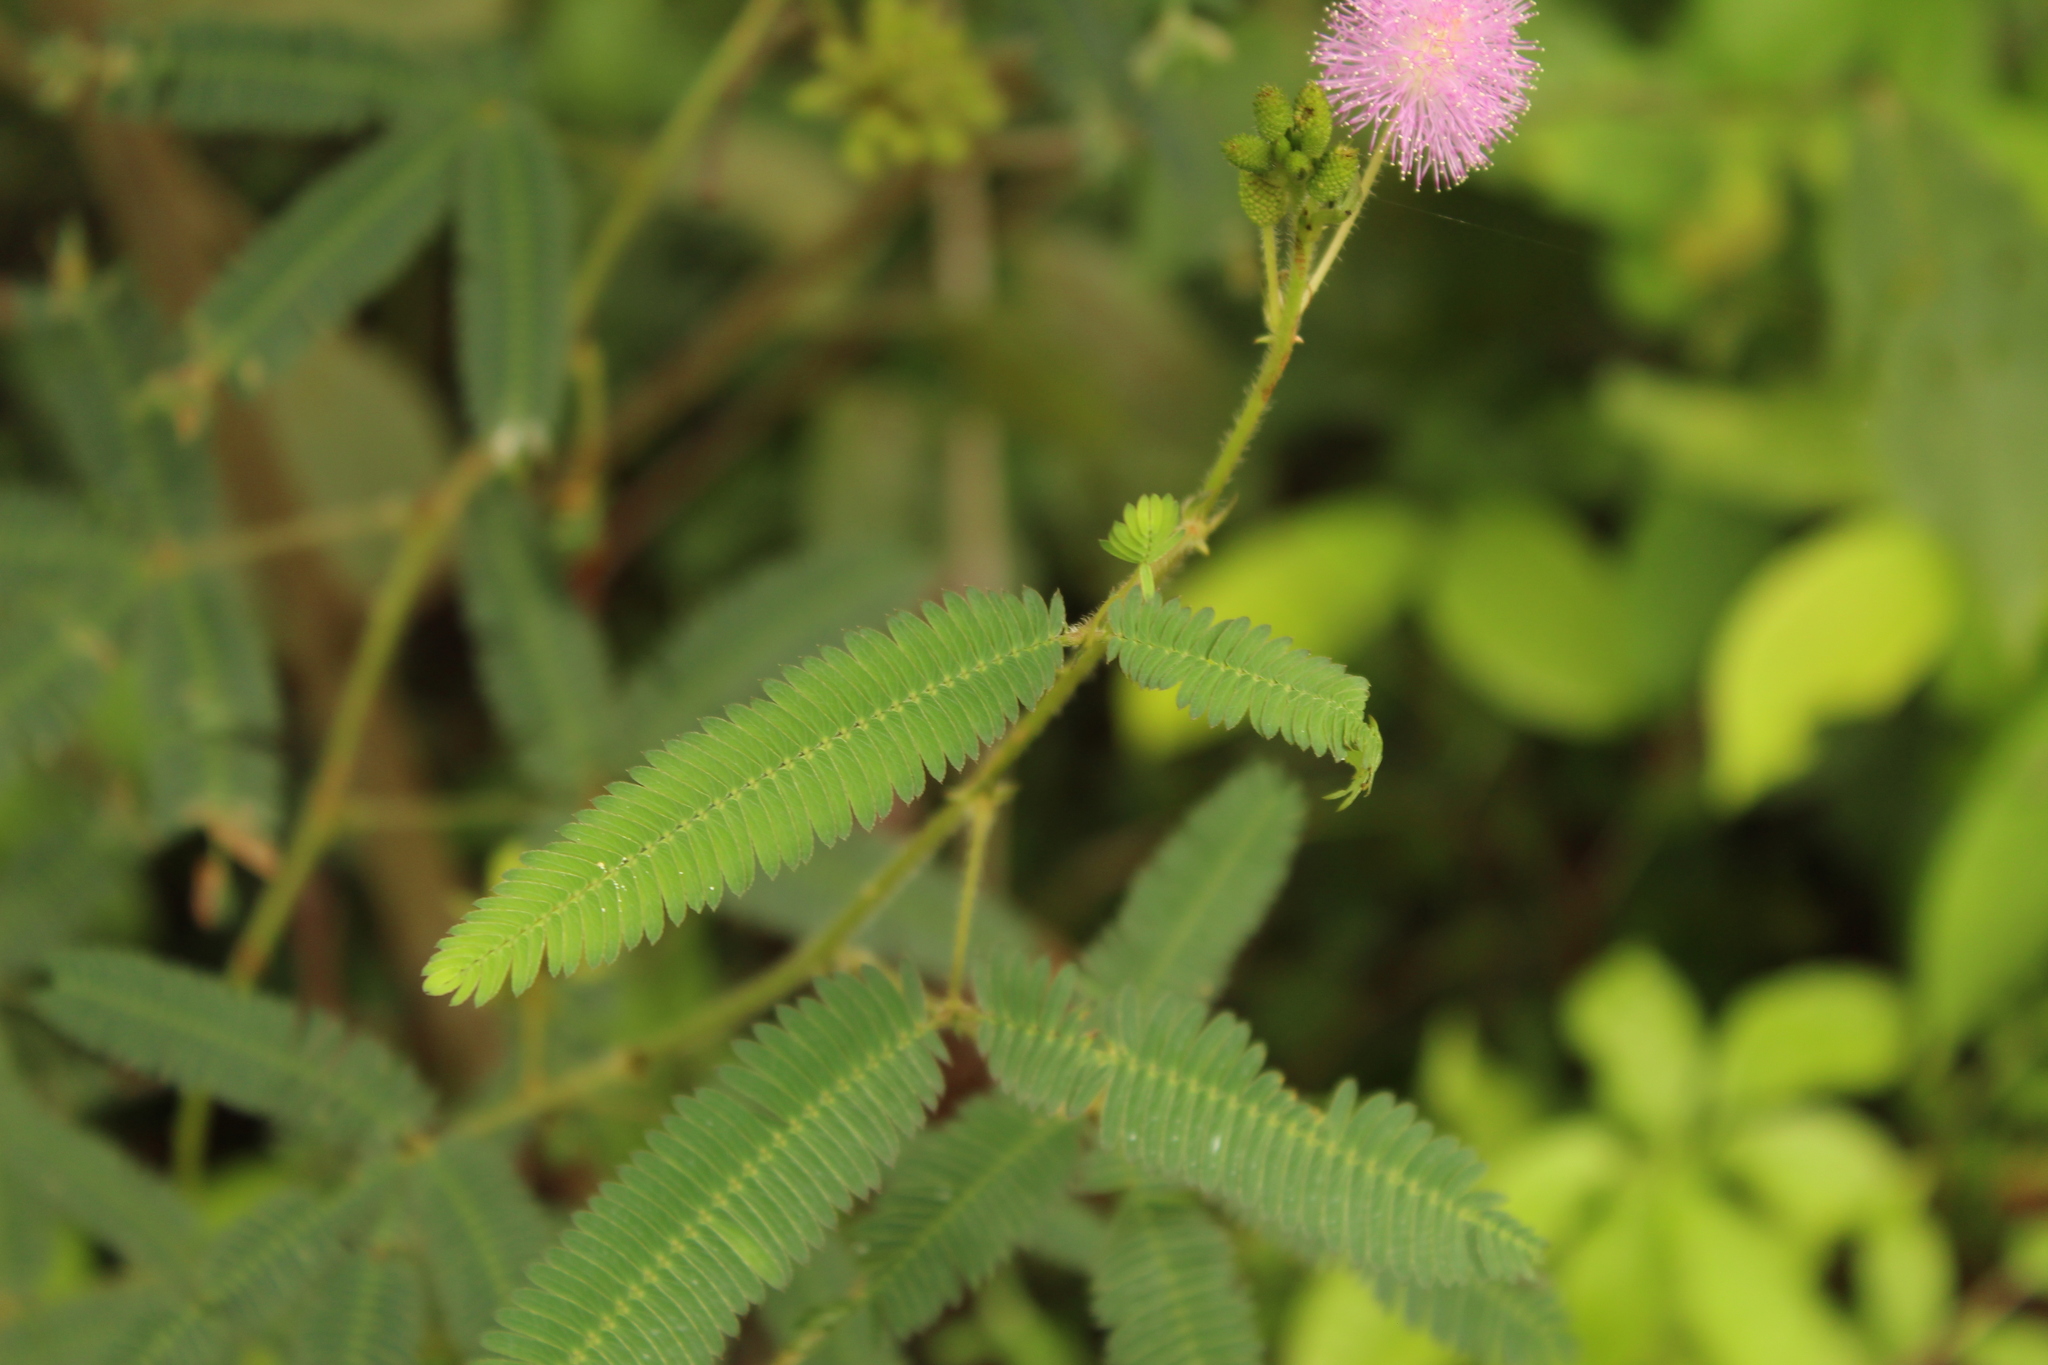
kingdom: Plantae
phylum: Tracheophyta
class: Magnoliopsida
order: Fabales
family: Fabaceae
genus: Mimosa
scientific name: Mimosa pudica
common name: Sensitive plant
